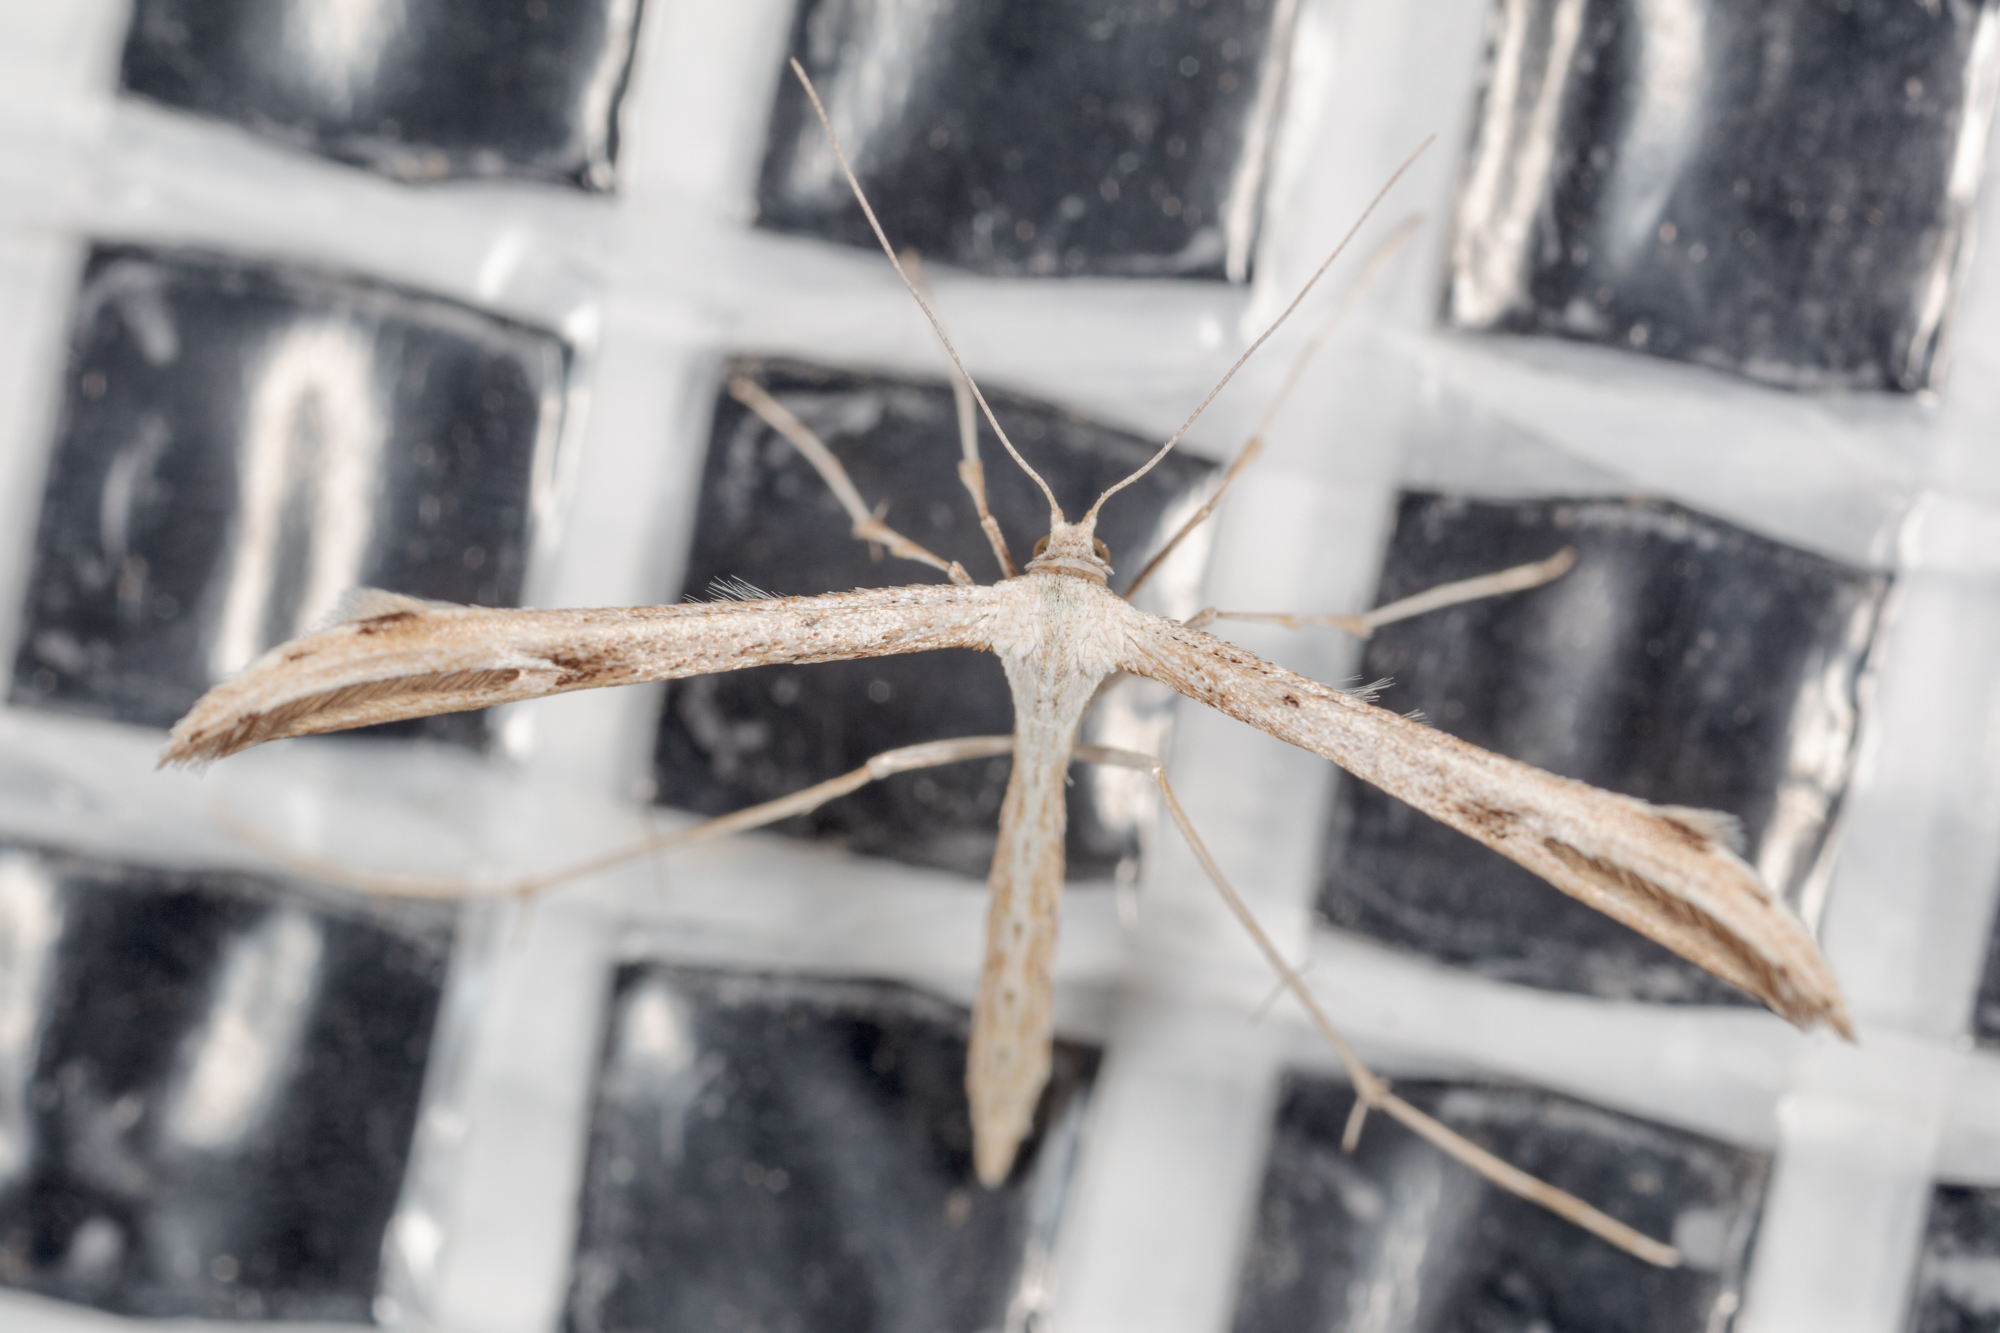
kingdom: Animalia
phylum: Arthropoda
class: Insecta
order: Lepidoptera
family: Pterophoridae
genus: Emmelina
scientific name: Emmelina monodactyla
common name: Common plume
